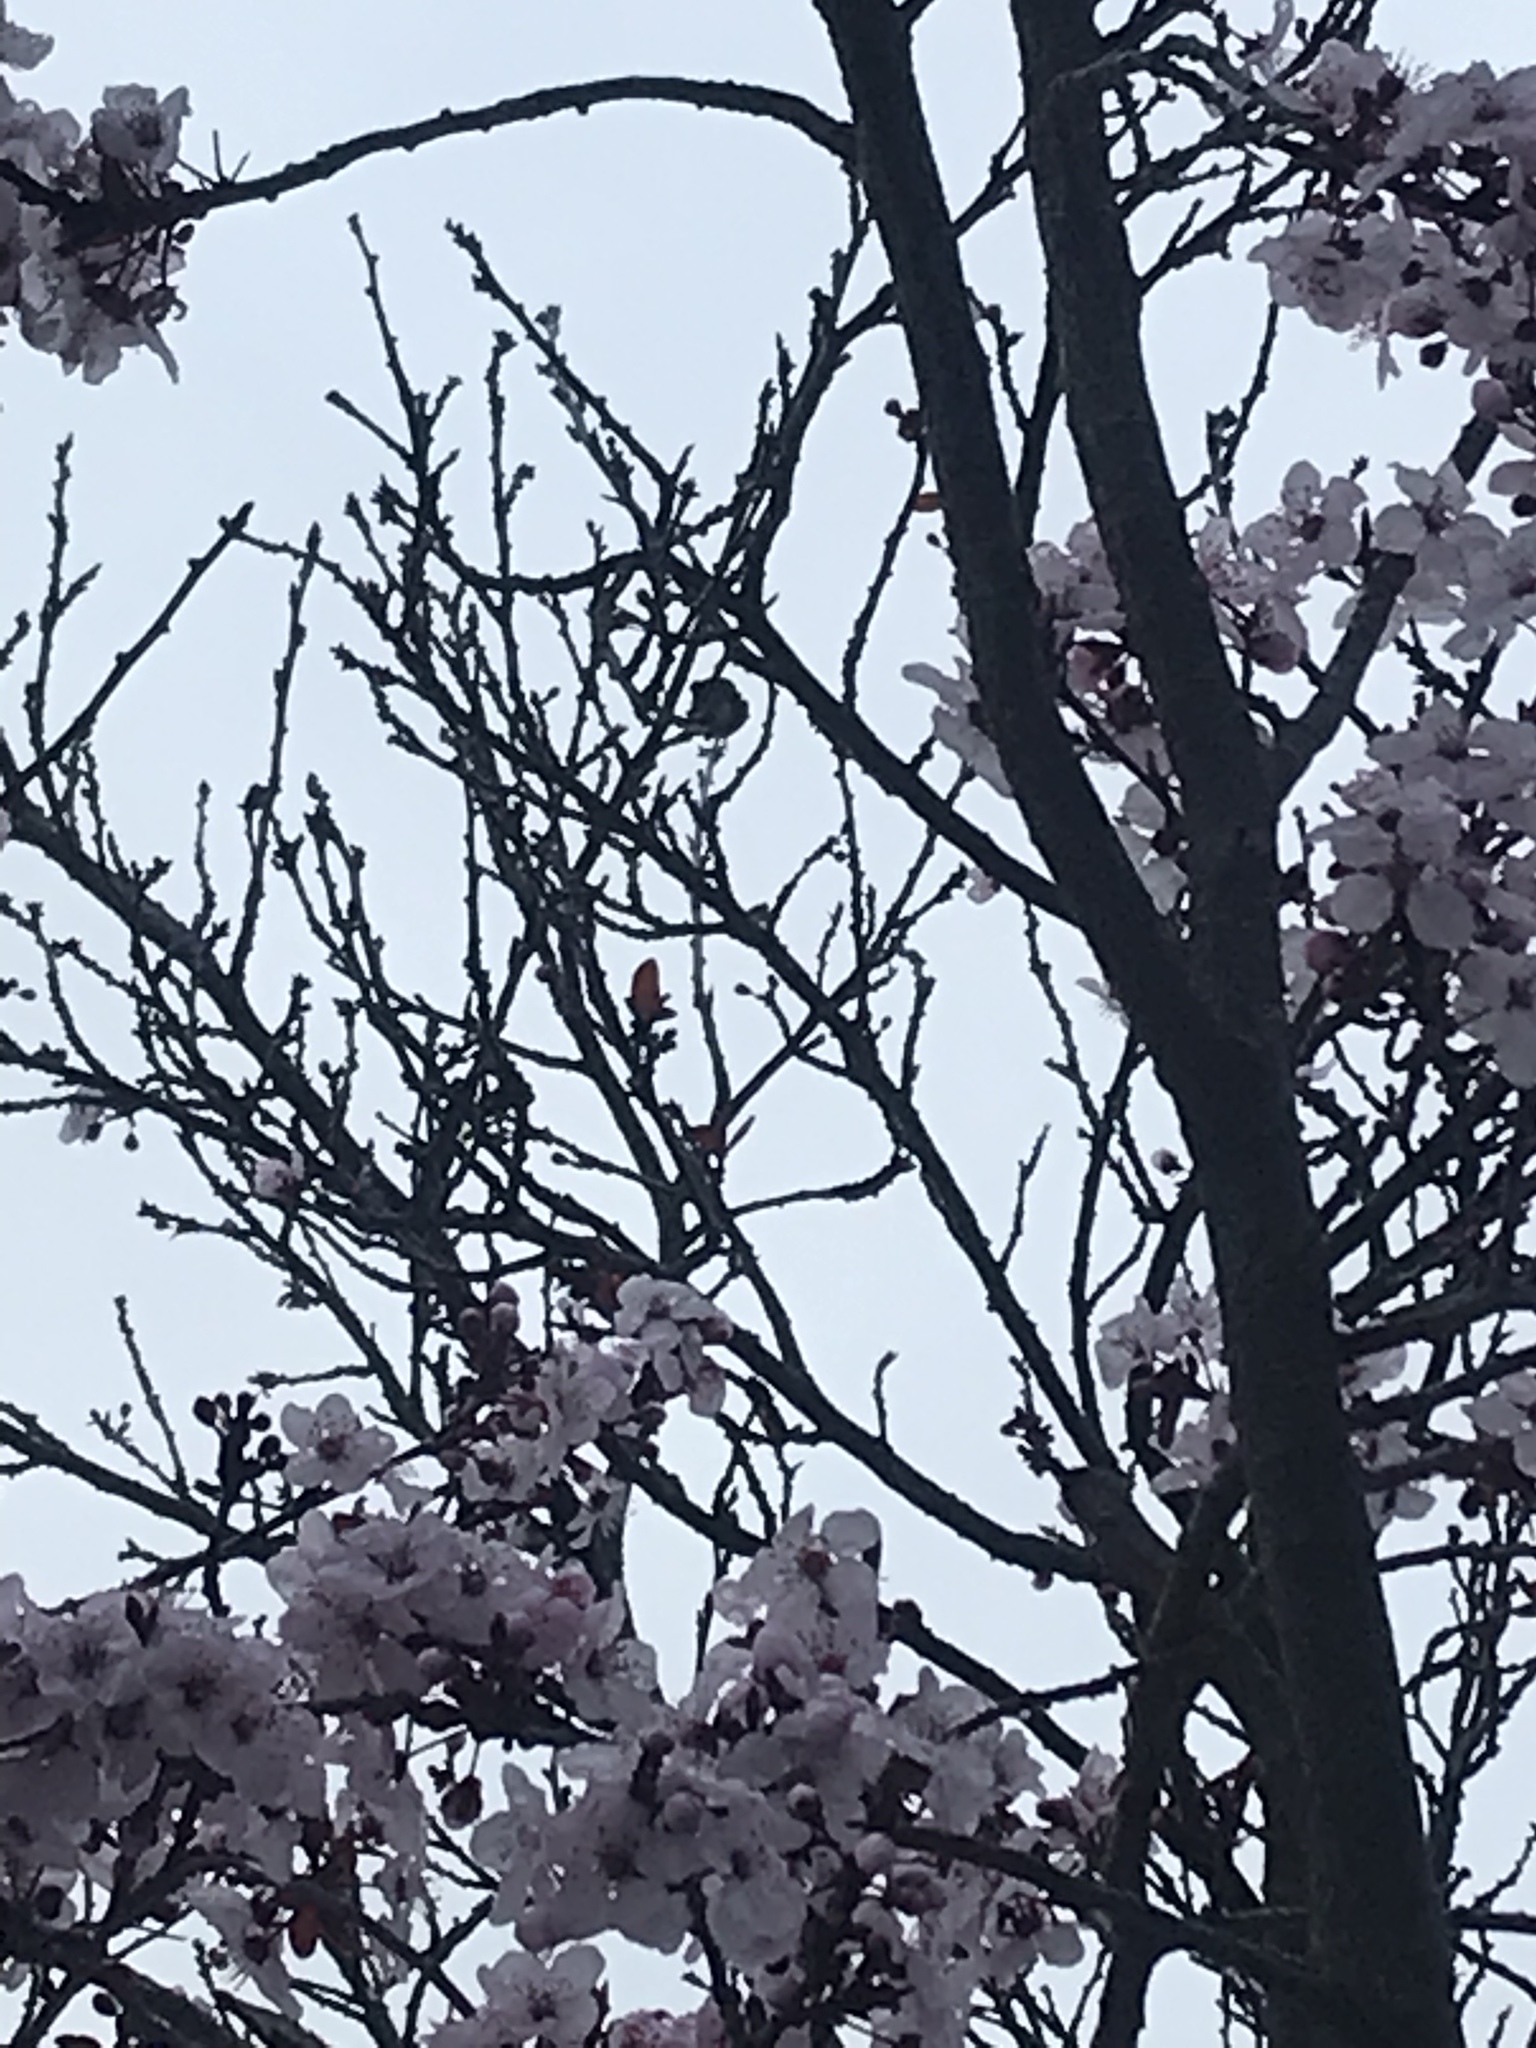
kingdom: Animalia
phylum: Chordata
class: Aves
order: Apodiformes
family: Trochilidae
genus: Calypte
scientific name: Calypte anna
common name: Anna's hummingbird
